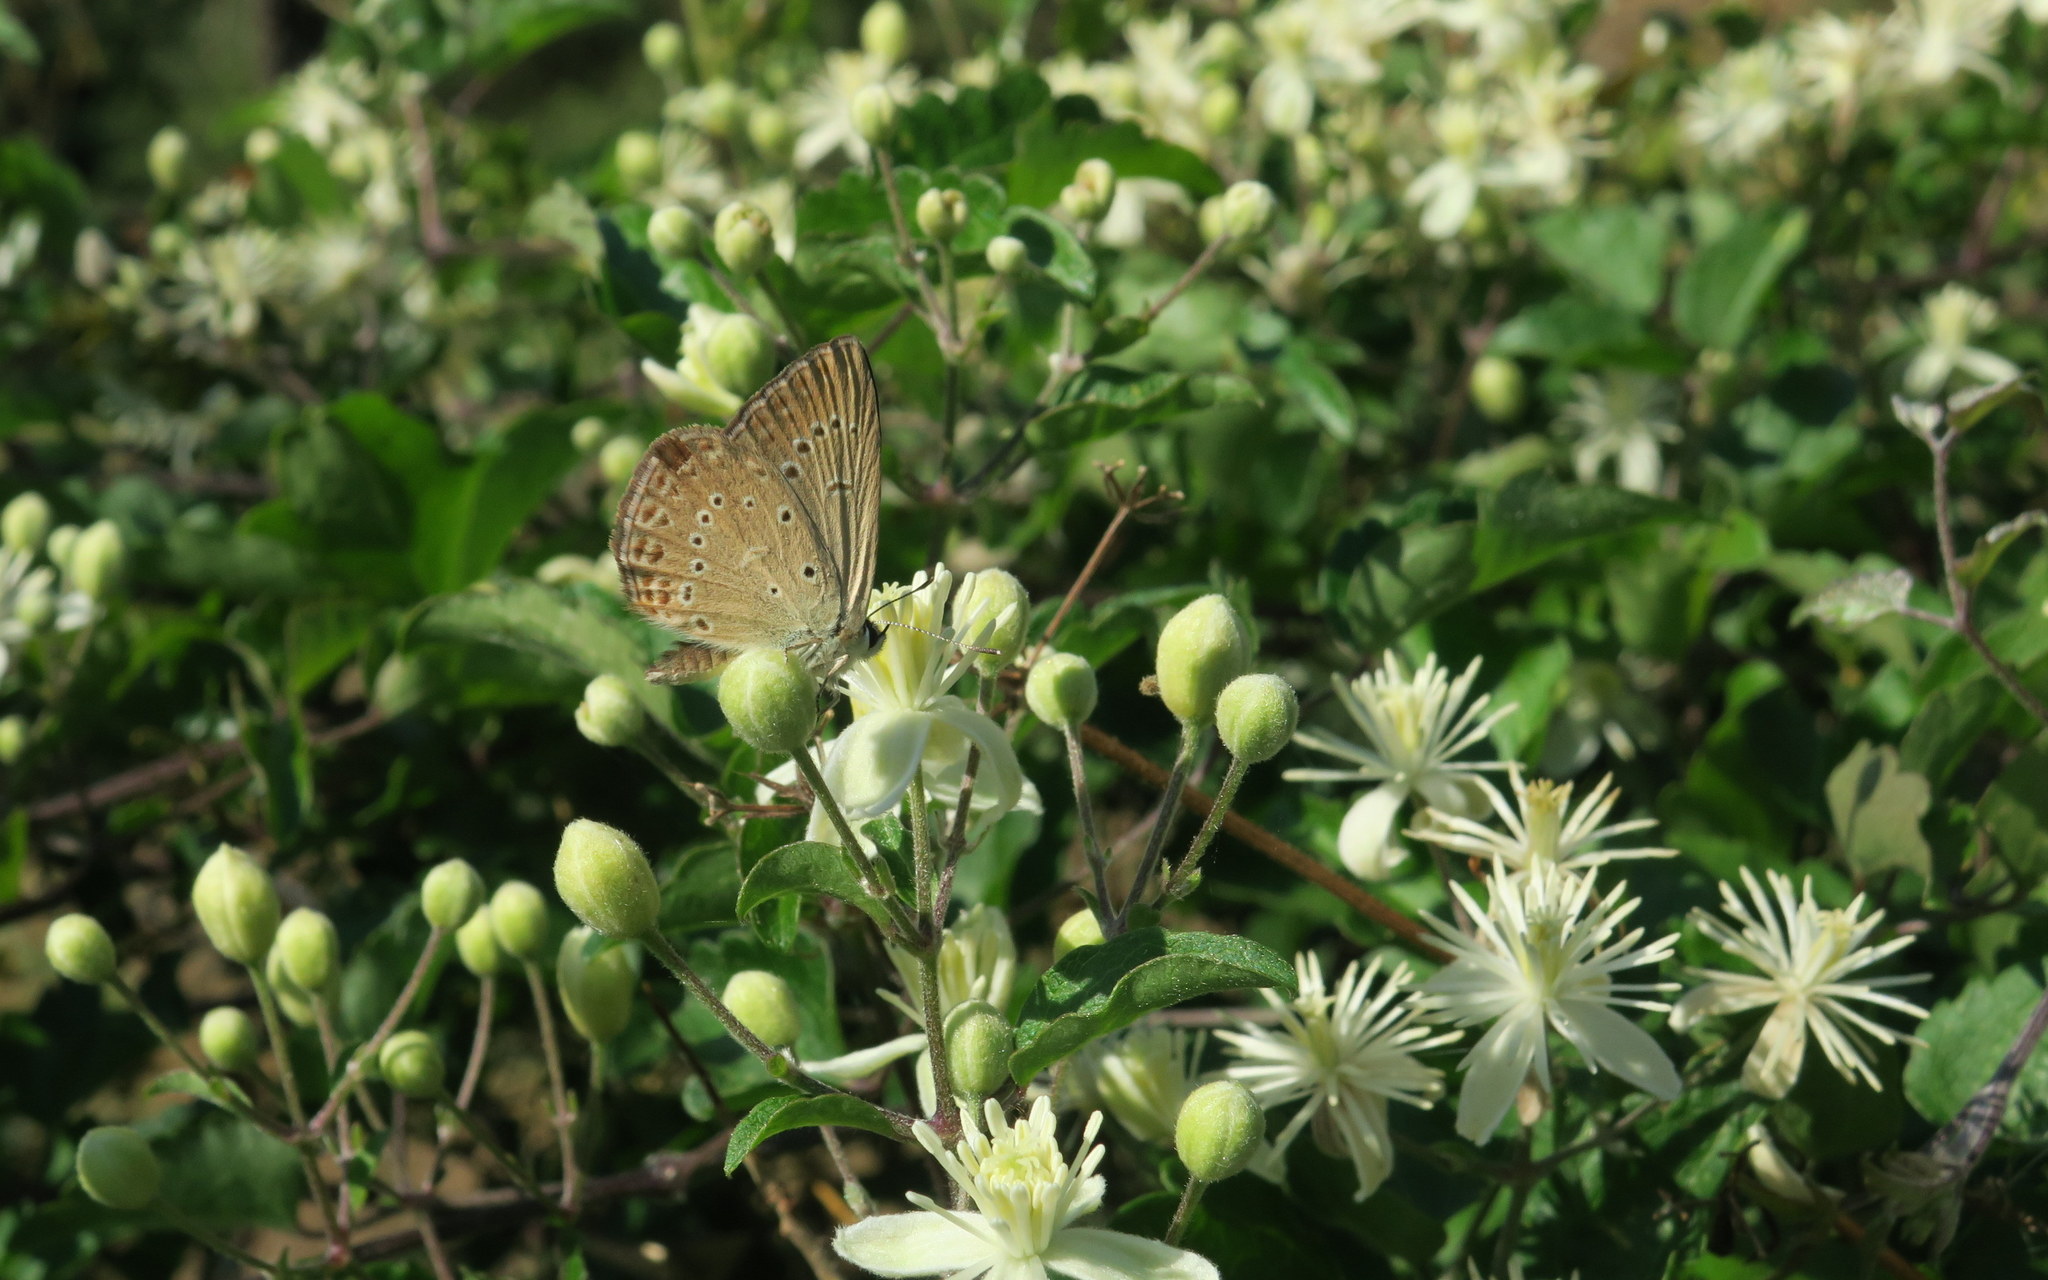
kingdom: Animalia
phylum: Arthropoda
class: Insecta
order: Lepidoptera
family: Lycaenidae
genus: Agrodiaetus
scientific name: Agrodiaetus admetus
